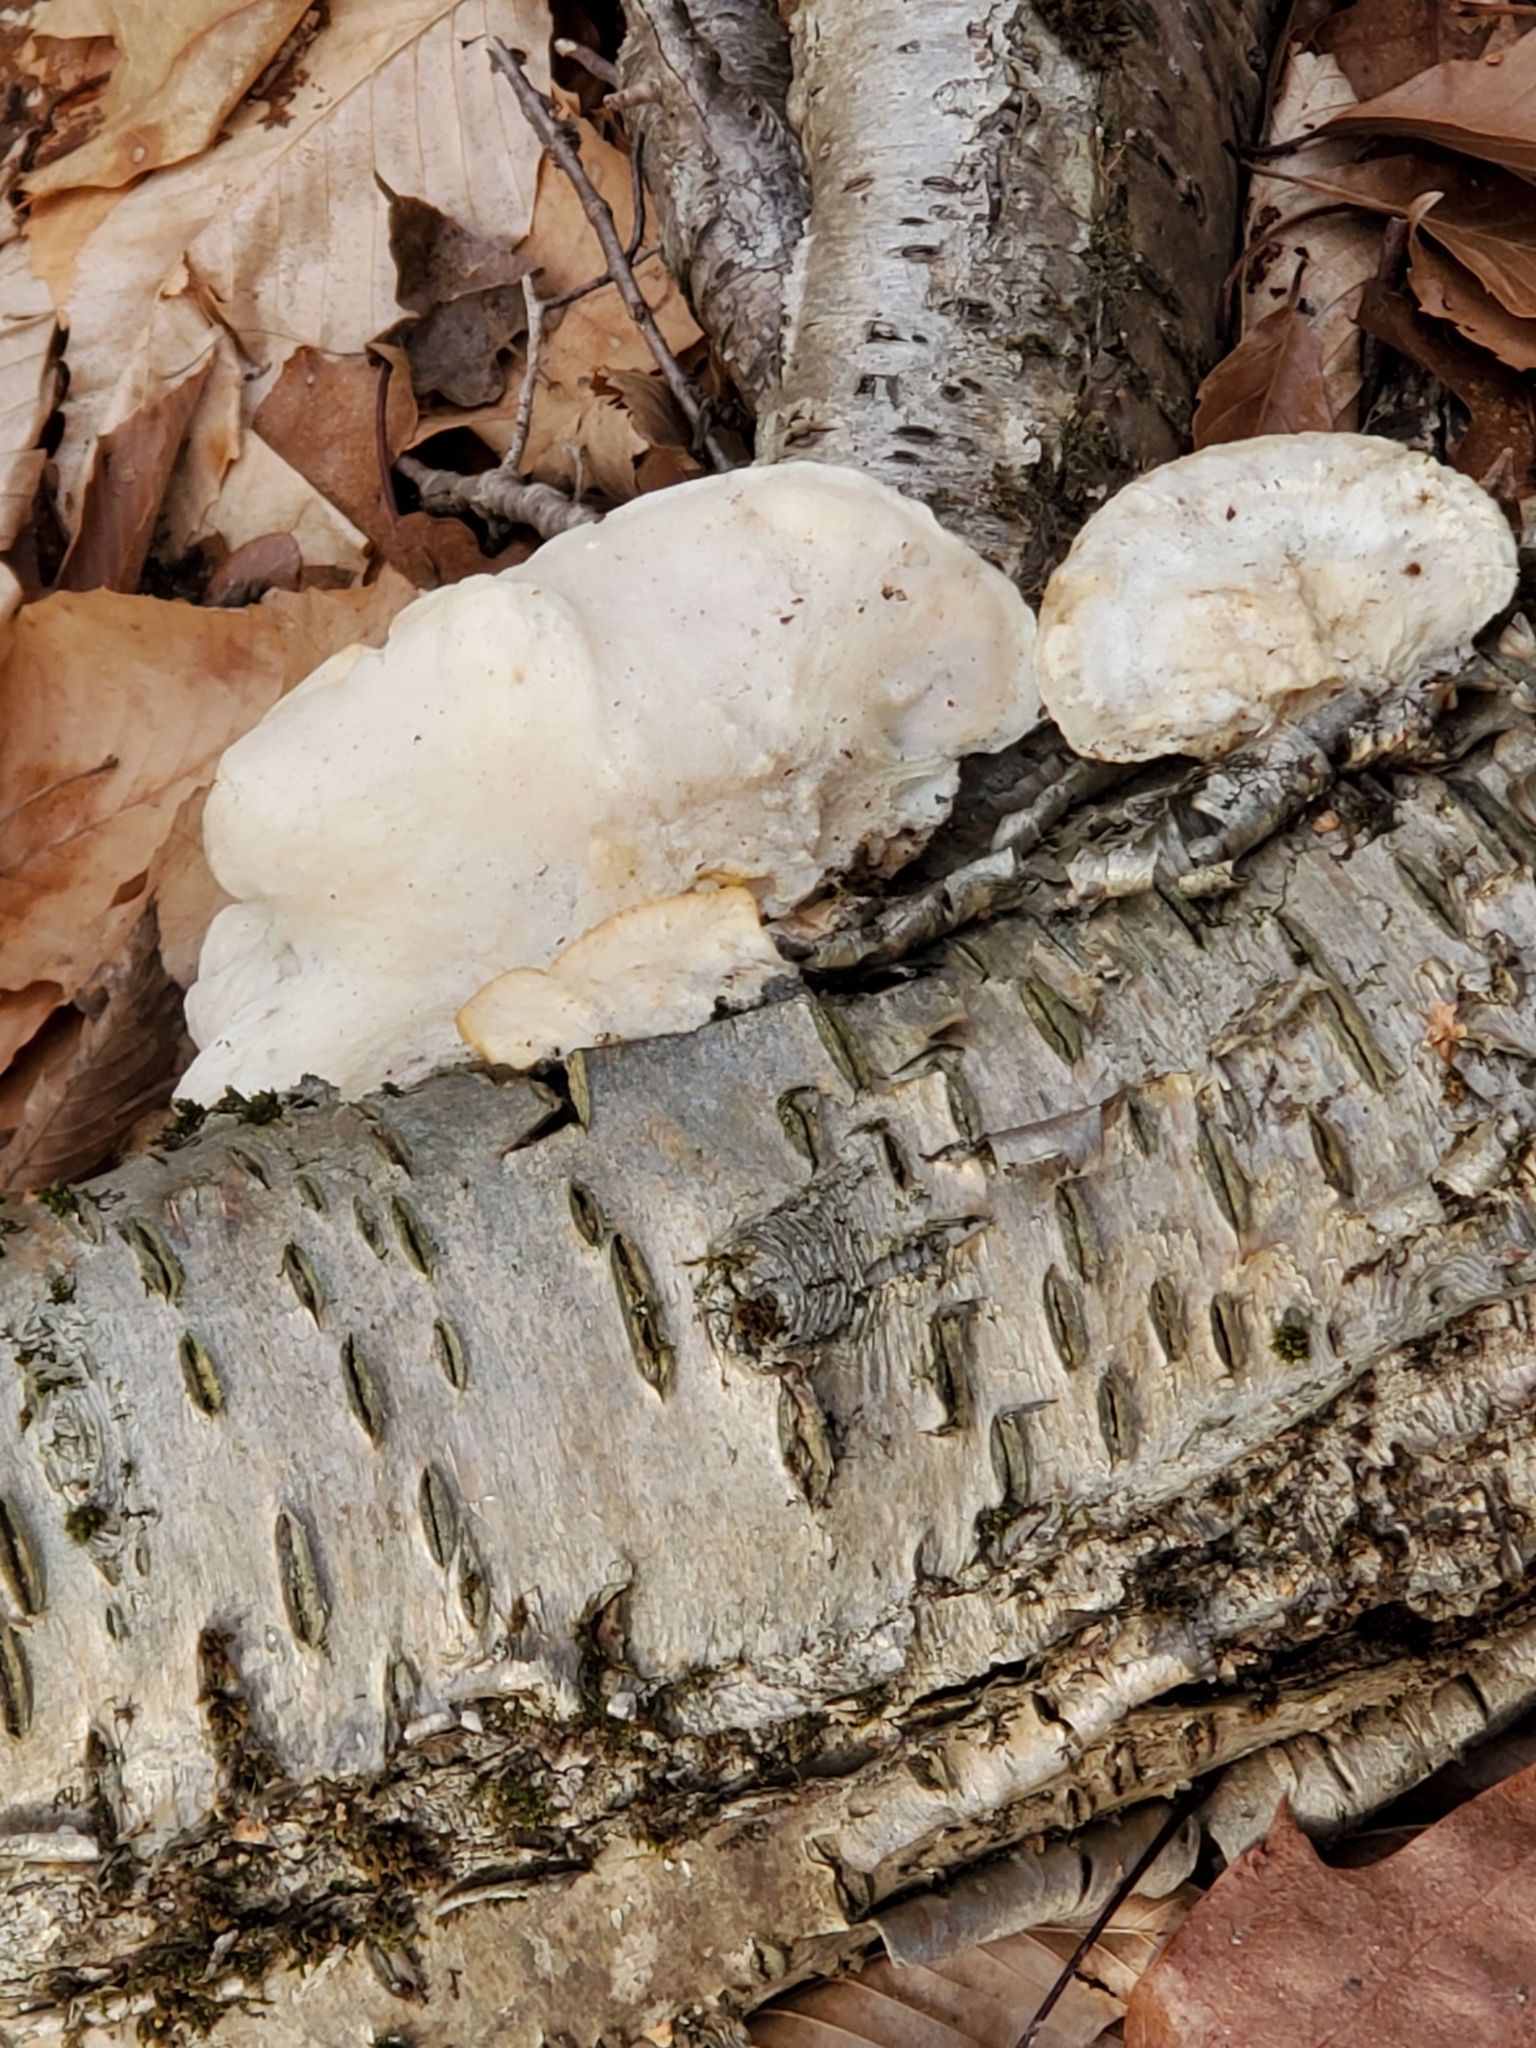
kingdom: Fungi
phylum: Basidiomycota
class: Agaricomycetes
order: Polyporales
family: Fomitopsidaceae
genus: Fomitopsis
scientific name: Fomitopsis betulina
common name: Birch polypore
